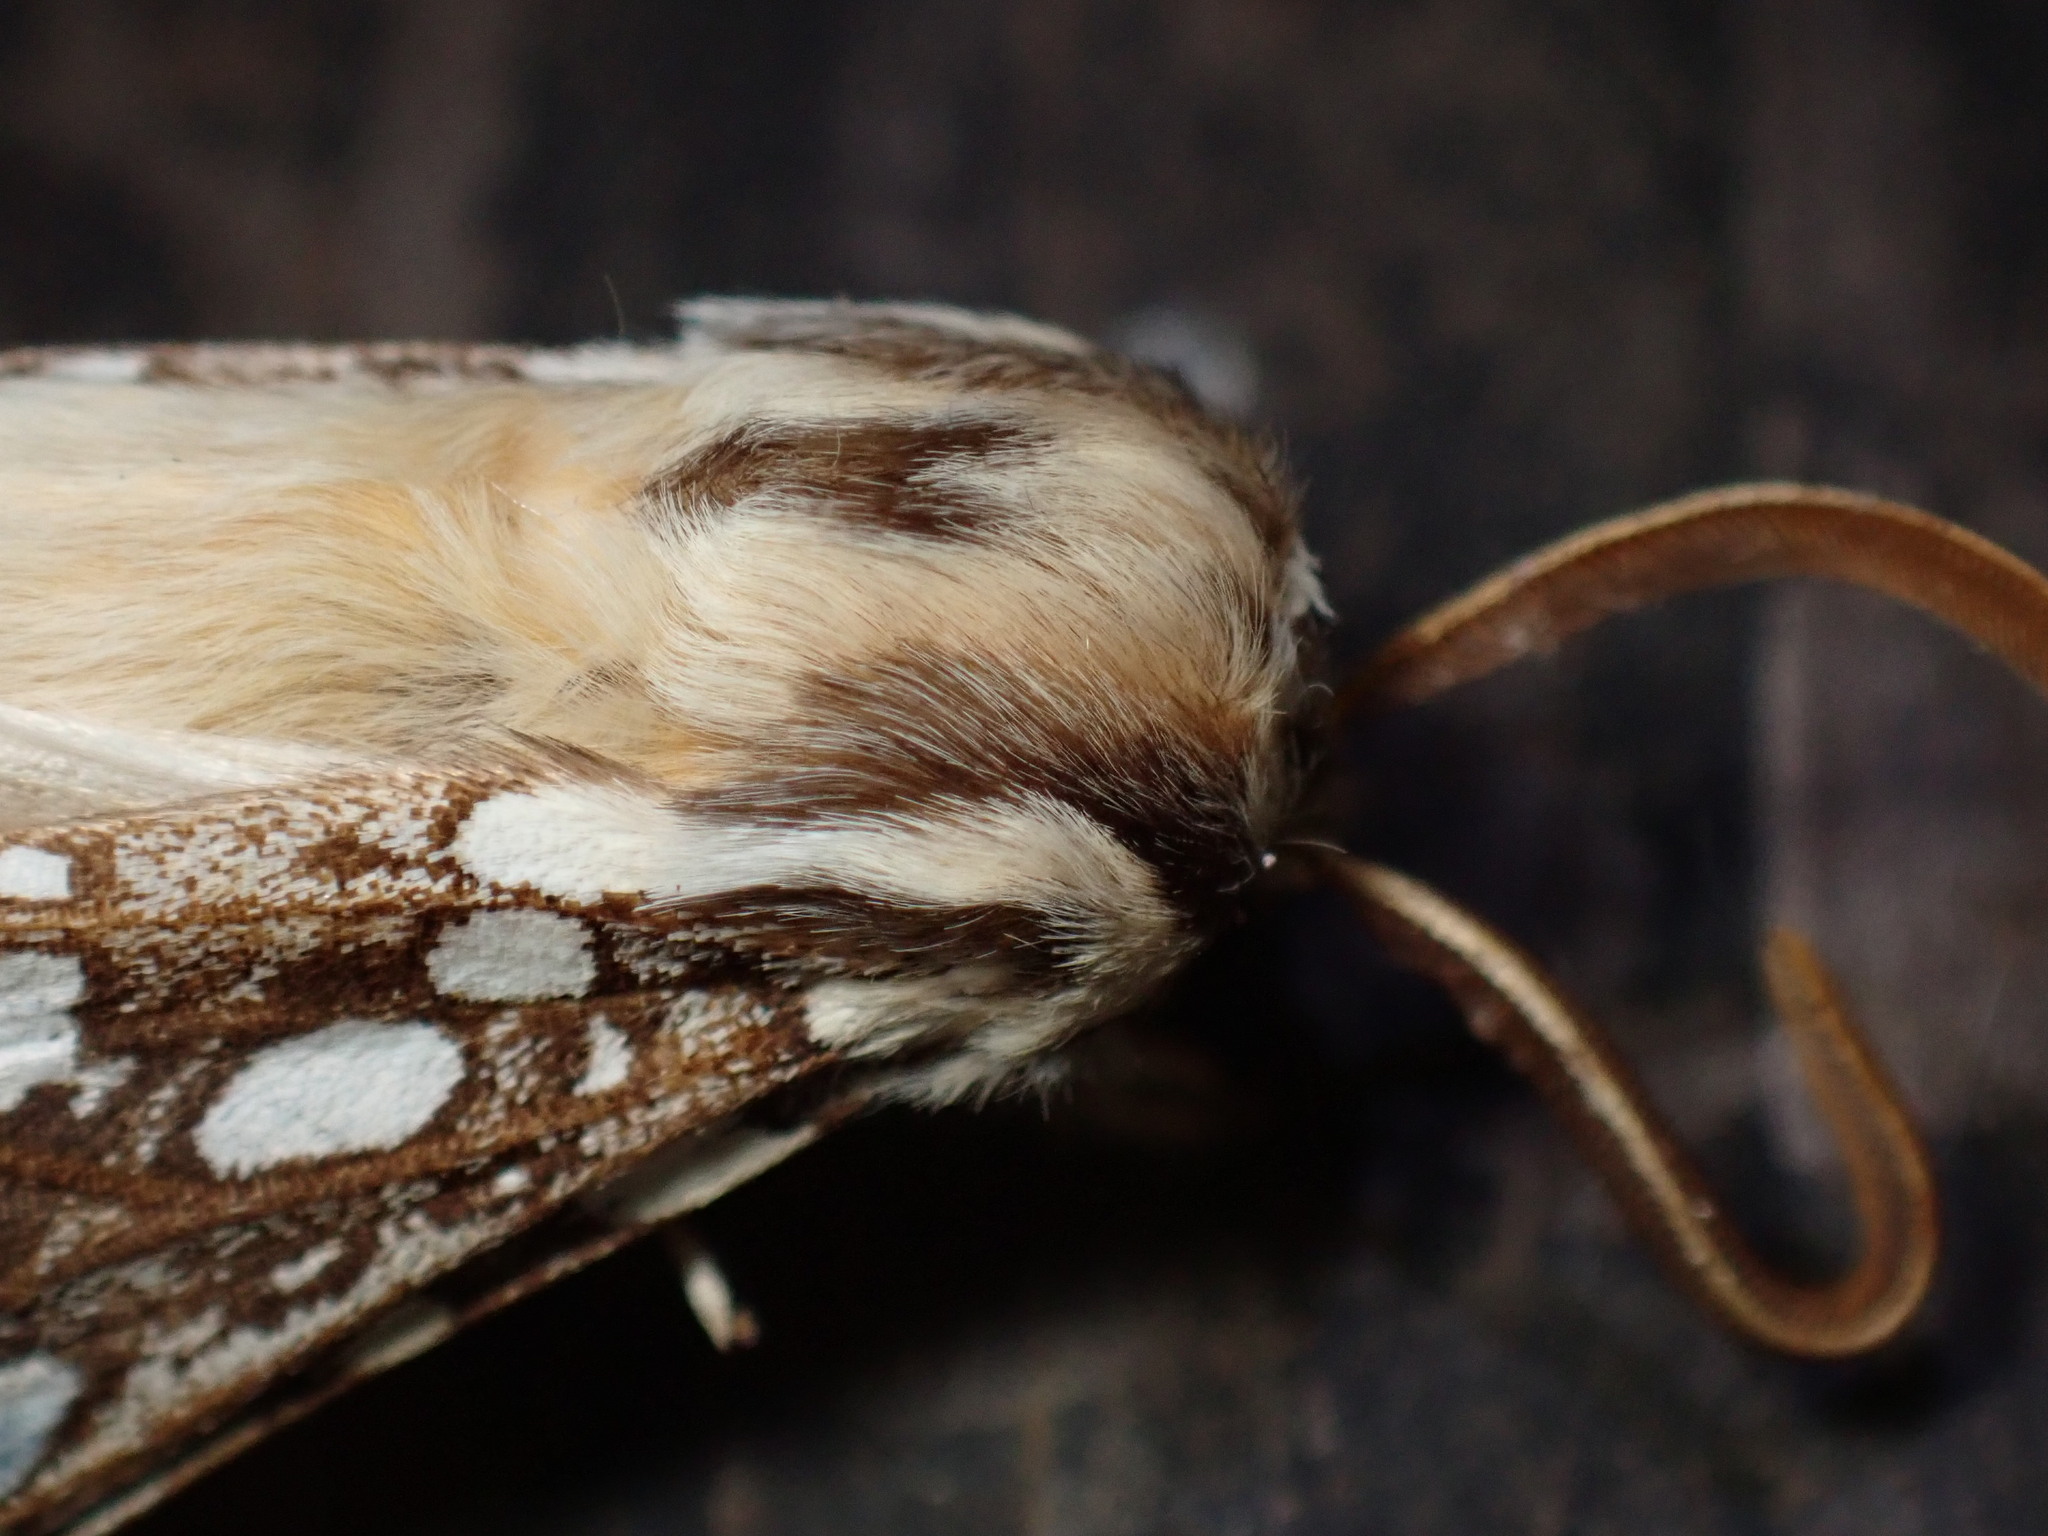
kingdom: Animalia
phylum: Arthropoda
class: Insecta
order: Lepidoptera
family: Erebidae
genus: Lophocampa
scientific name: Lophocampa argentata
